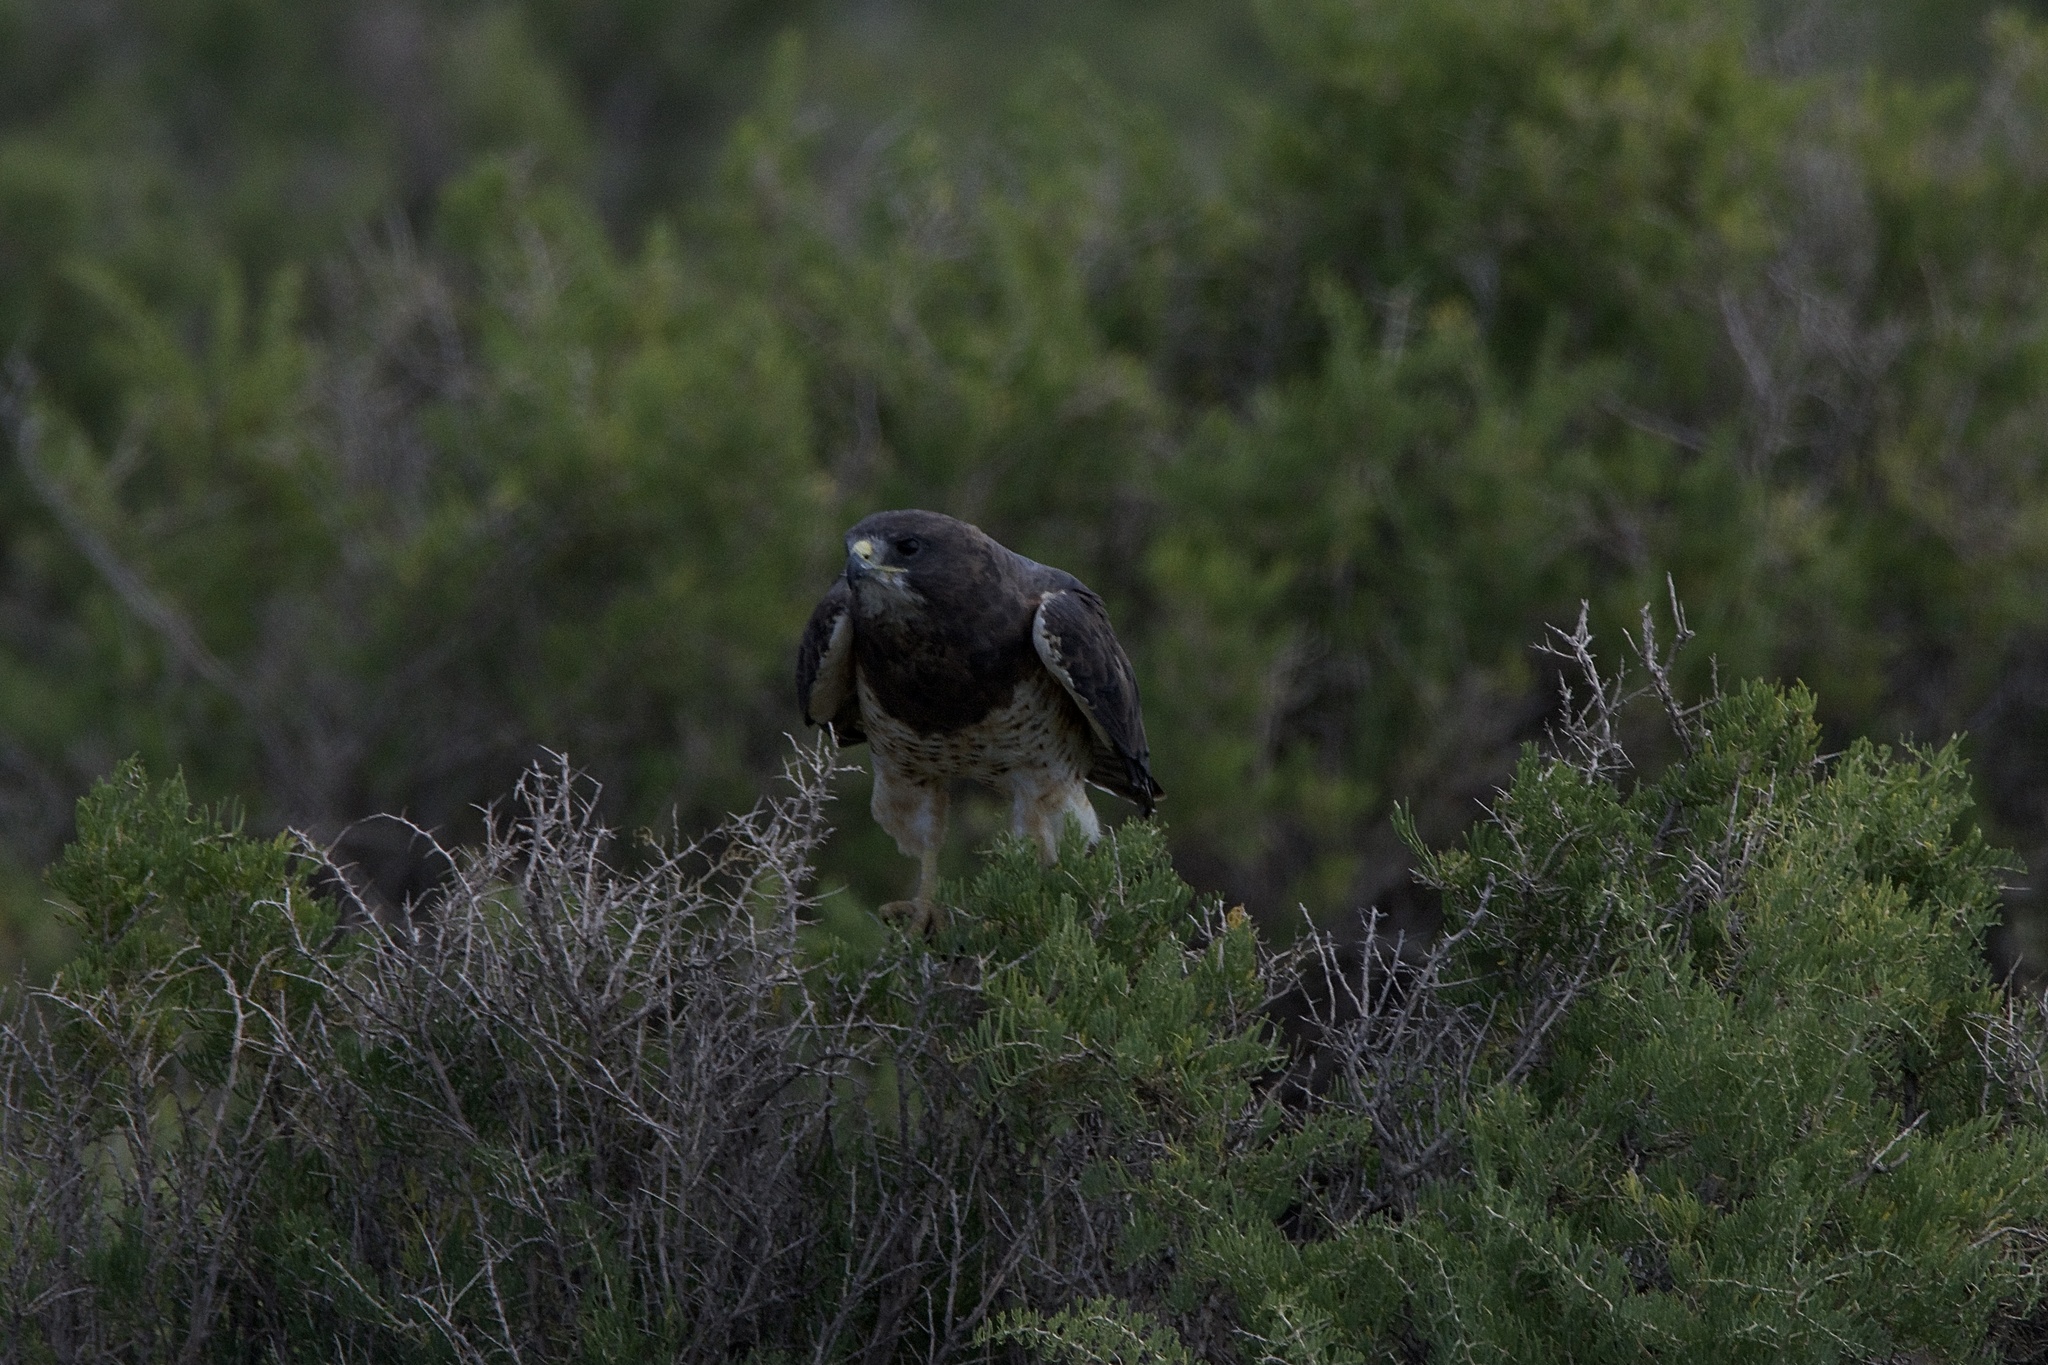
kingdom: Animalia
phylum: Chordata
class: Aves
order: Accipitriformes
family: Accipitridae
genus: Buteo
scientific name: Buteo swainsoni
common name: Swainson's hawk
